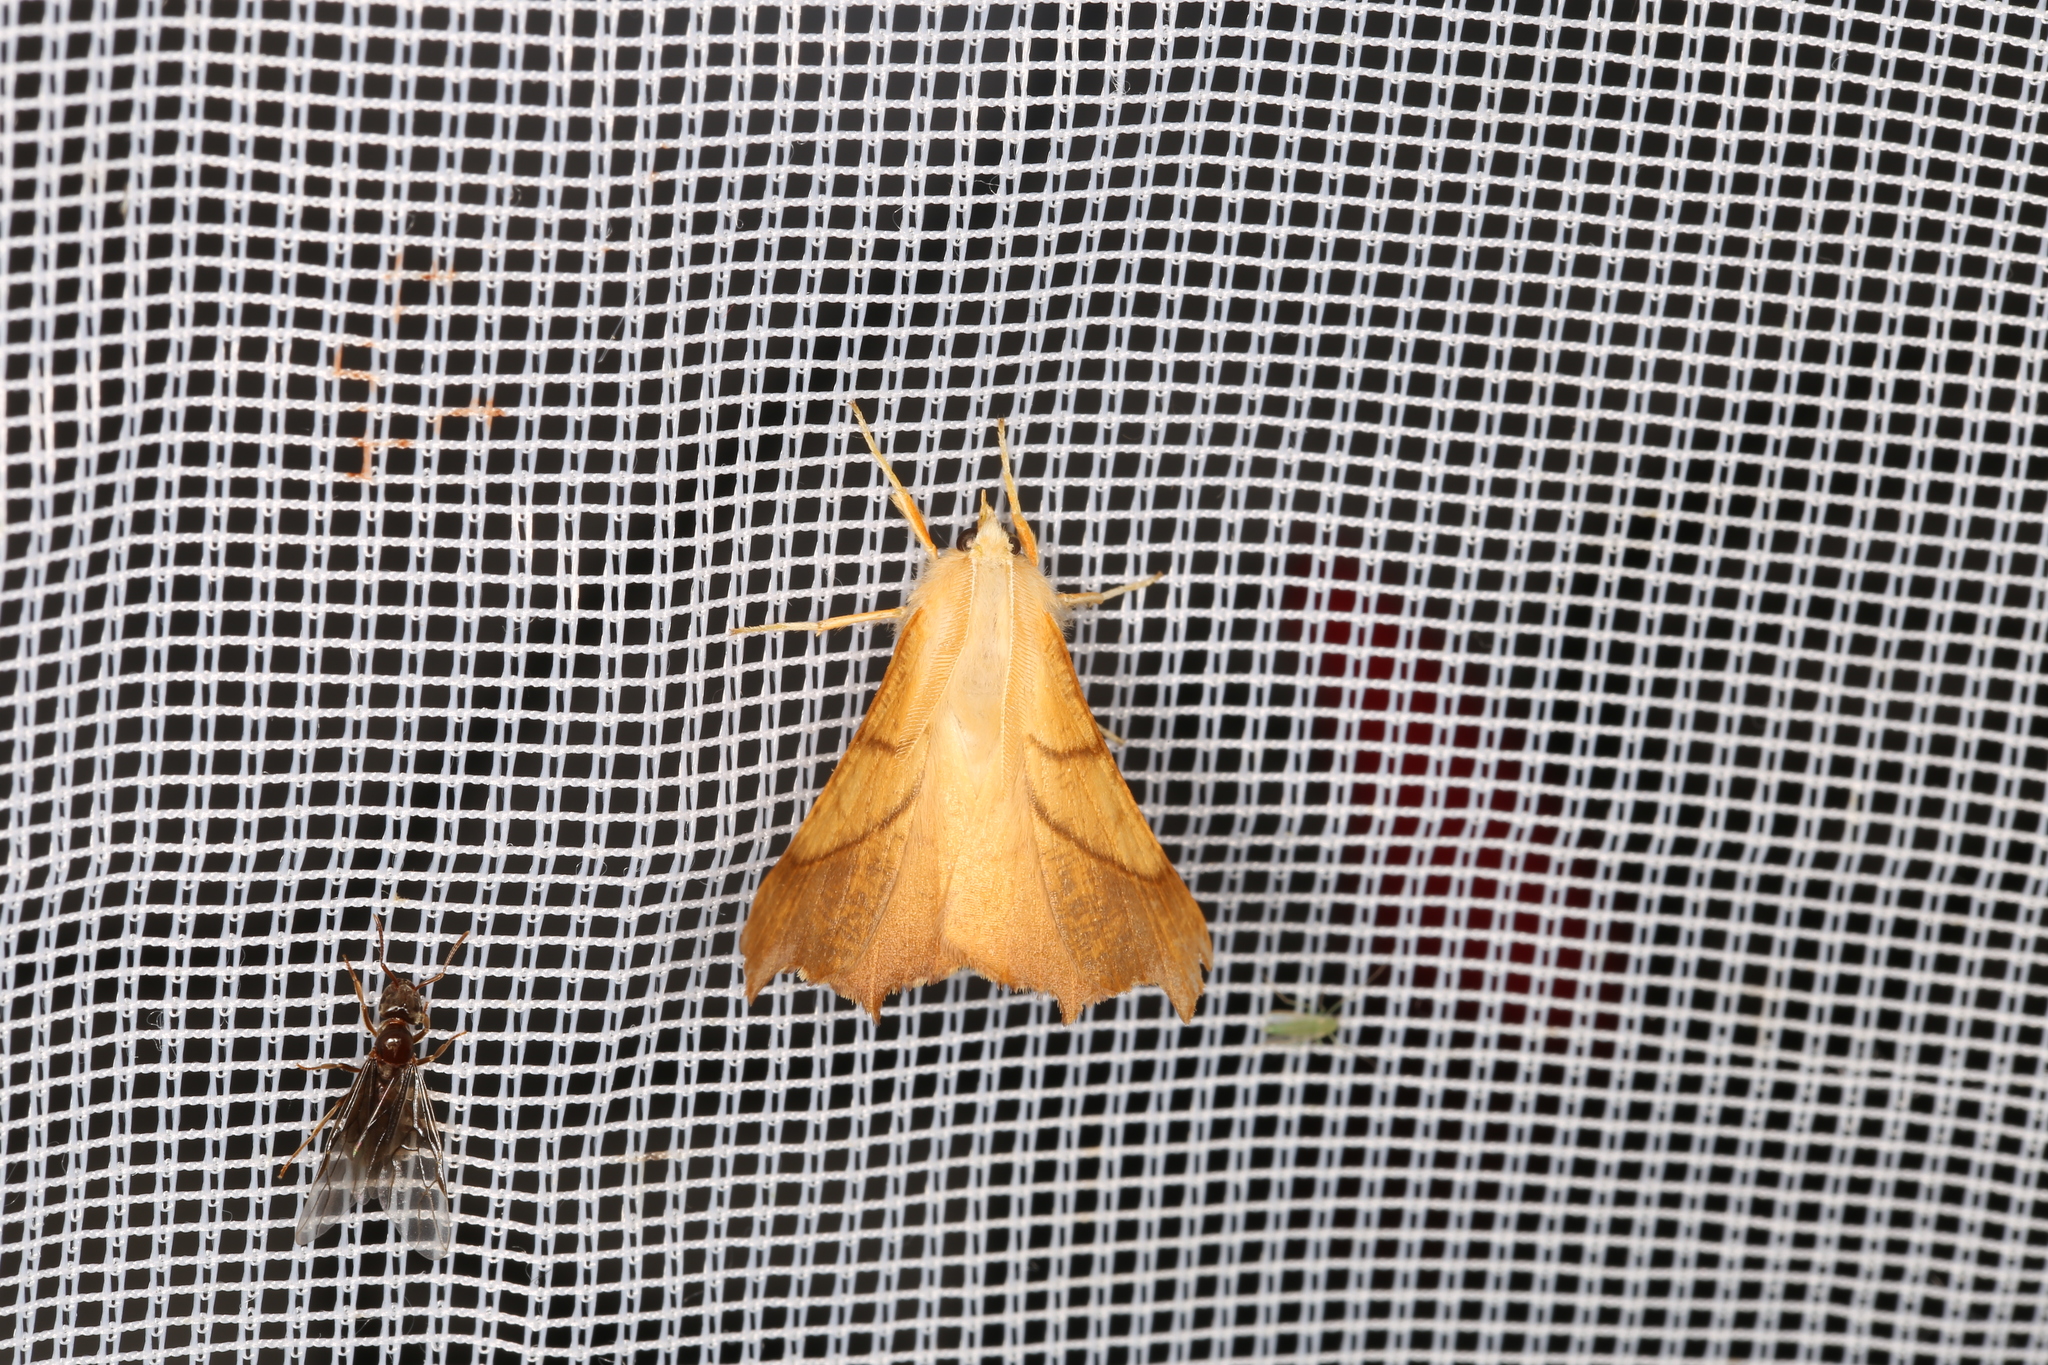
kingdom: Animalia
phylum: Arthropoda
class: Insecta
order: Lepidoptera
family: Geometridae
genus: Ennomos
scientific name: Ennomos fuscantaria
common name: Dusky thorn
